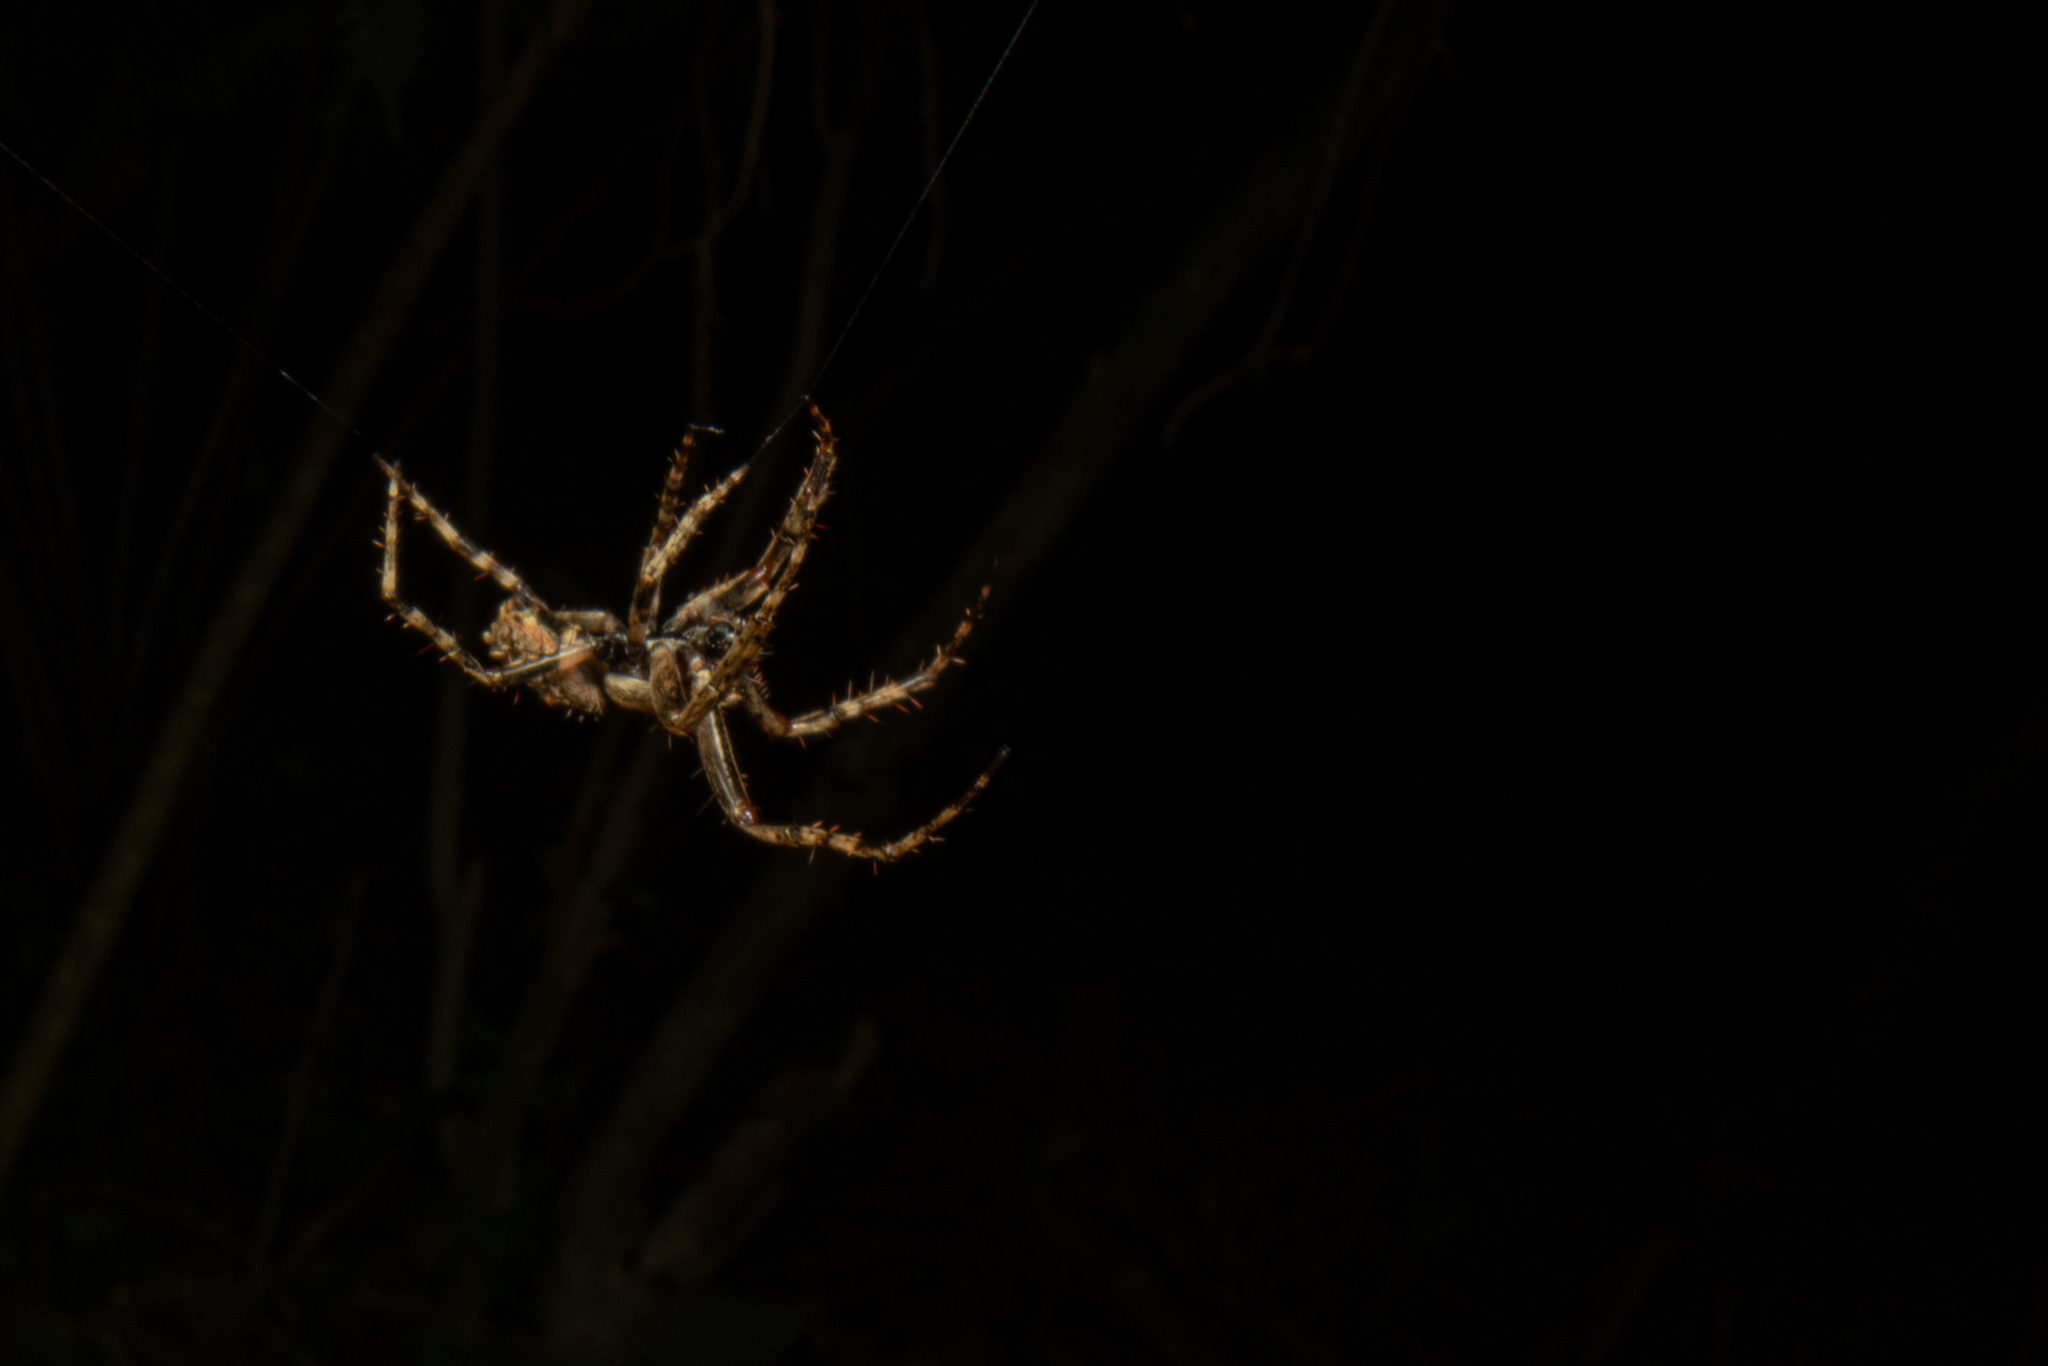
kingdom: Animalia
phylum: Arthropoda
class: Arachnida
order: Araneae
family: Araneidae
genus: Eriophora
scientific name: Eriophora pustulosa
